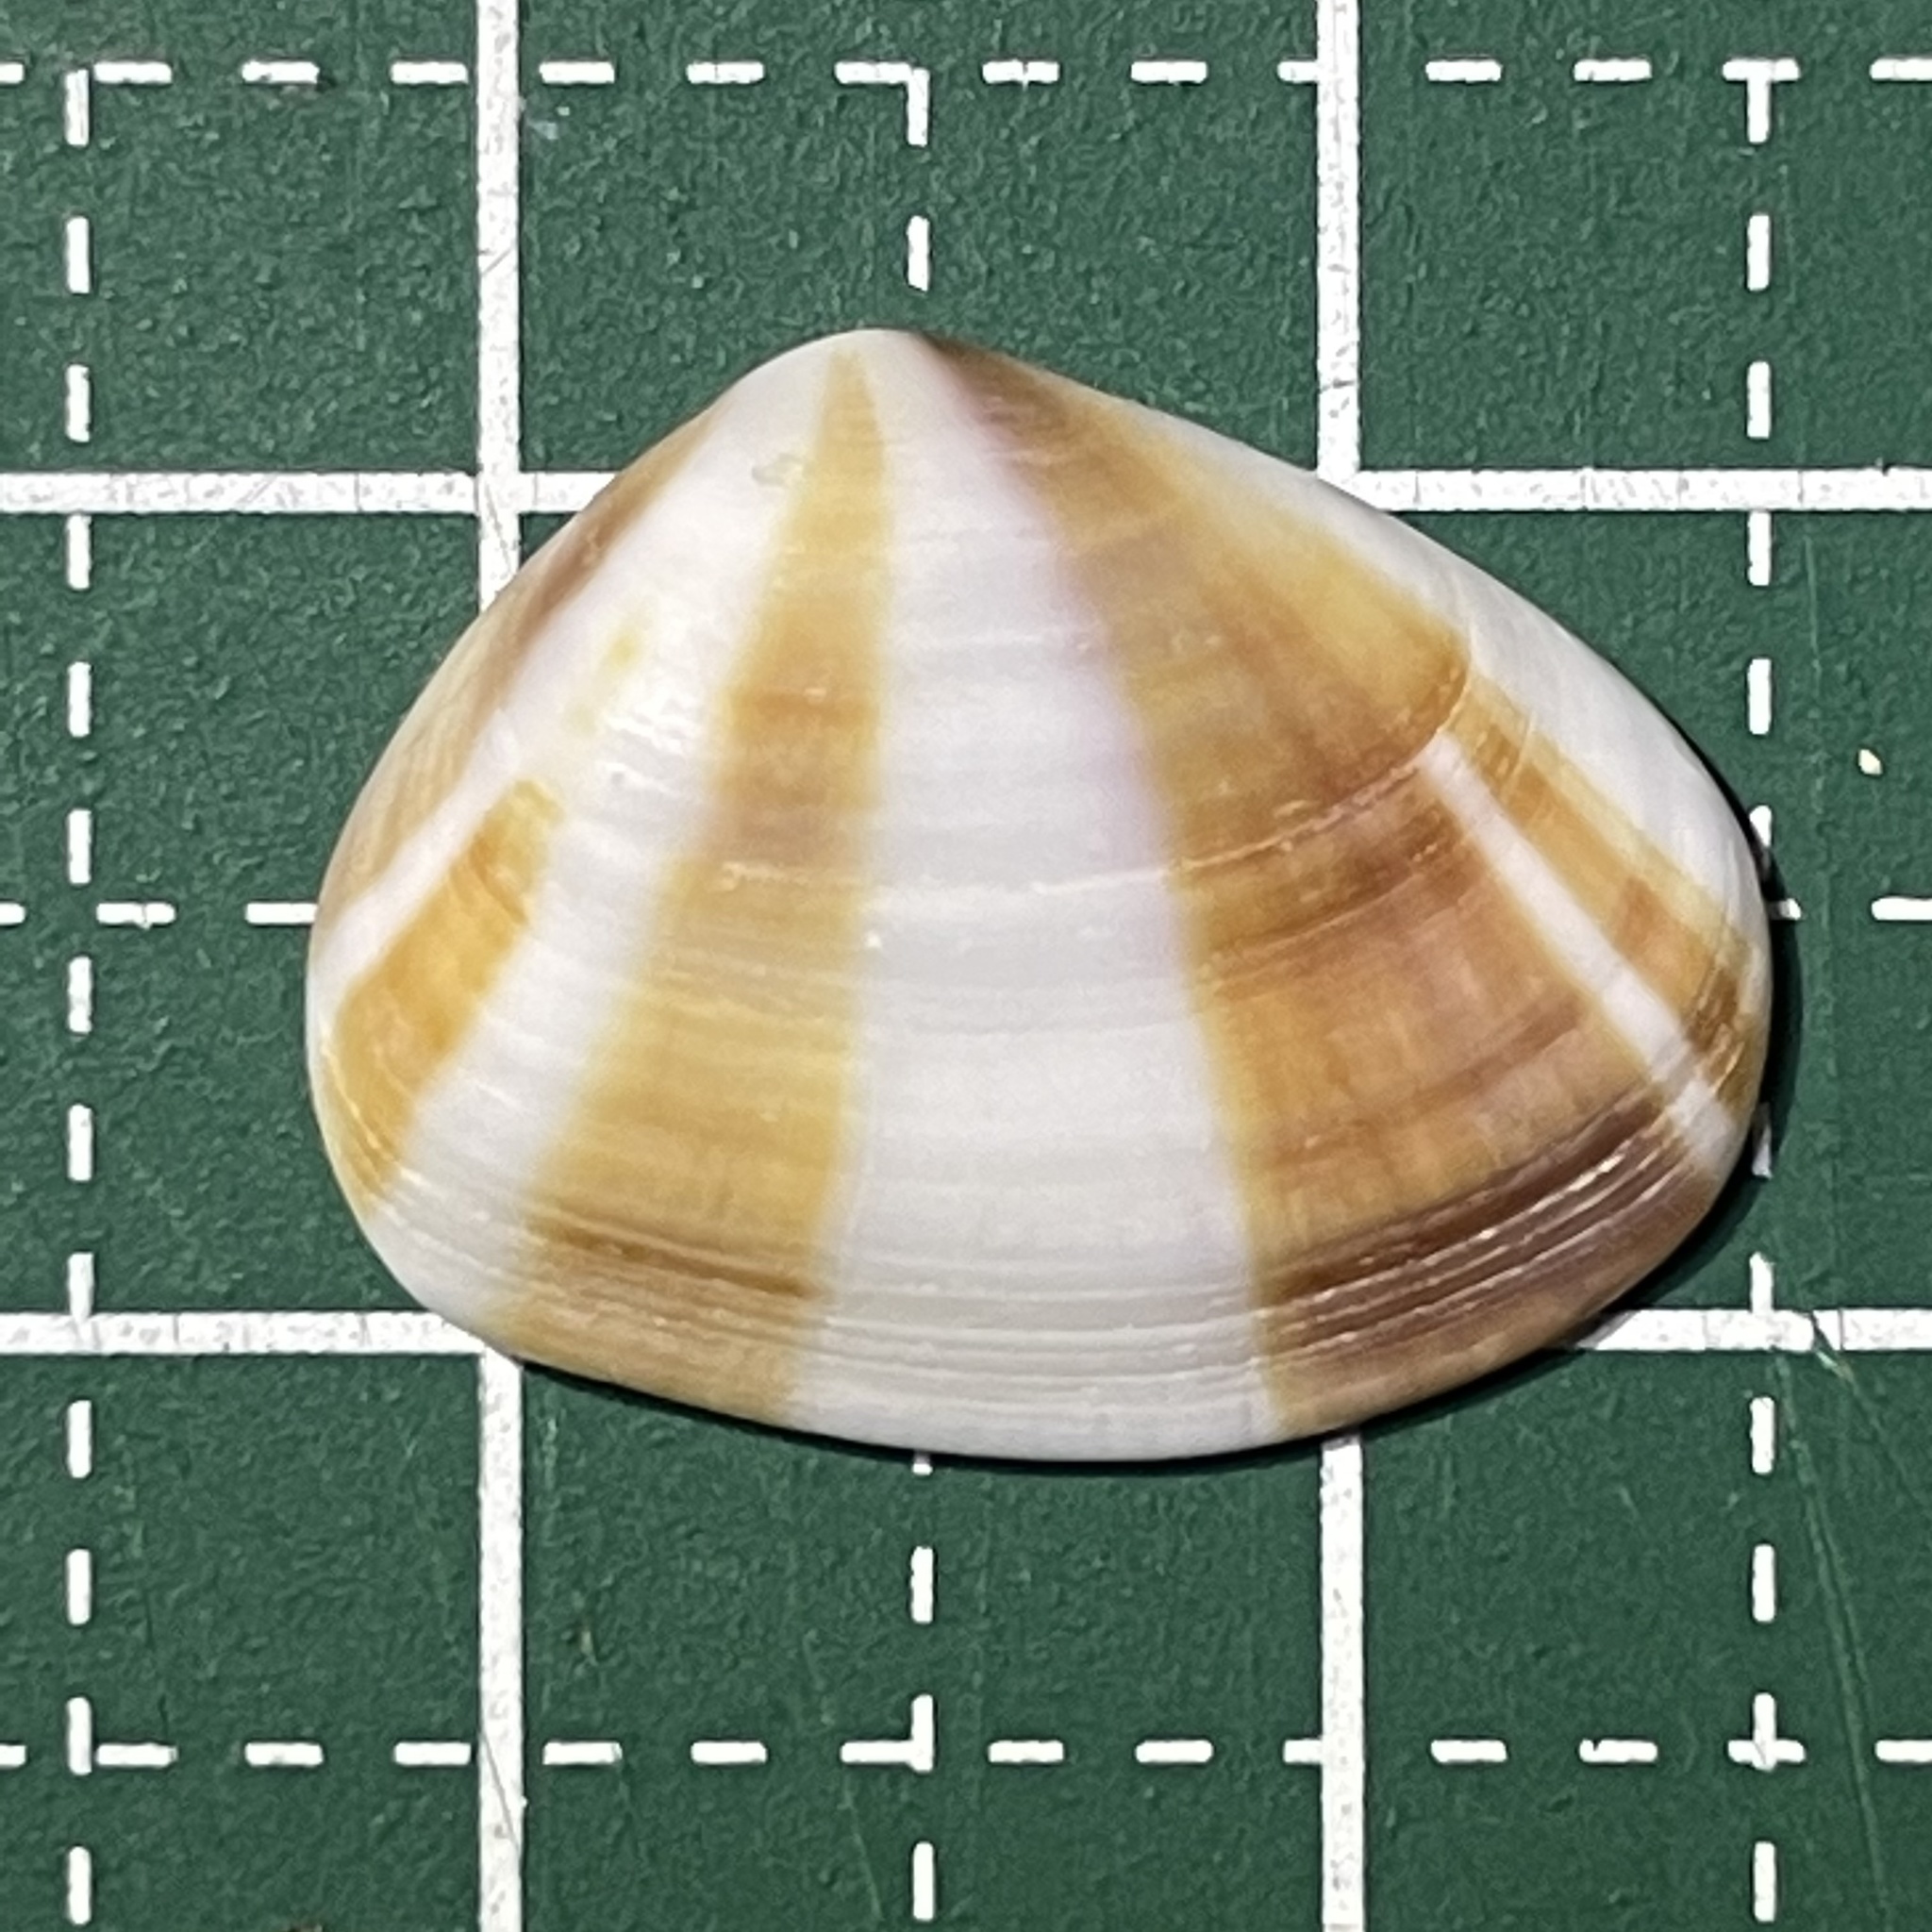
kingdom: Animalia
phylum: Mollusca
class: Bivalvia
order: Cardiida
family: Donacidae
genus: Donax
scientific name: Donax faba
